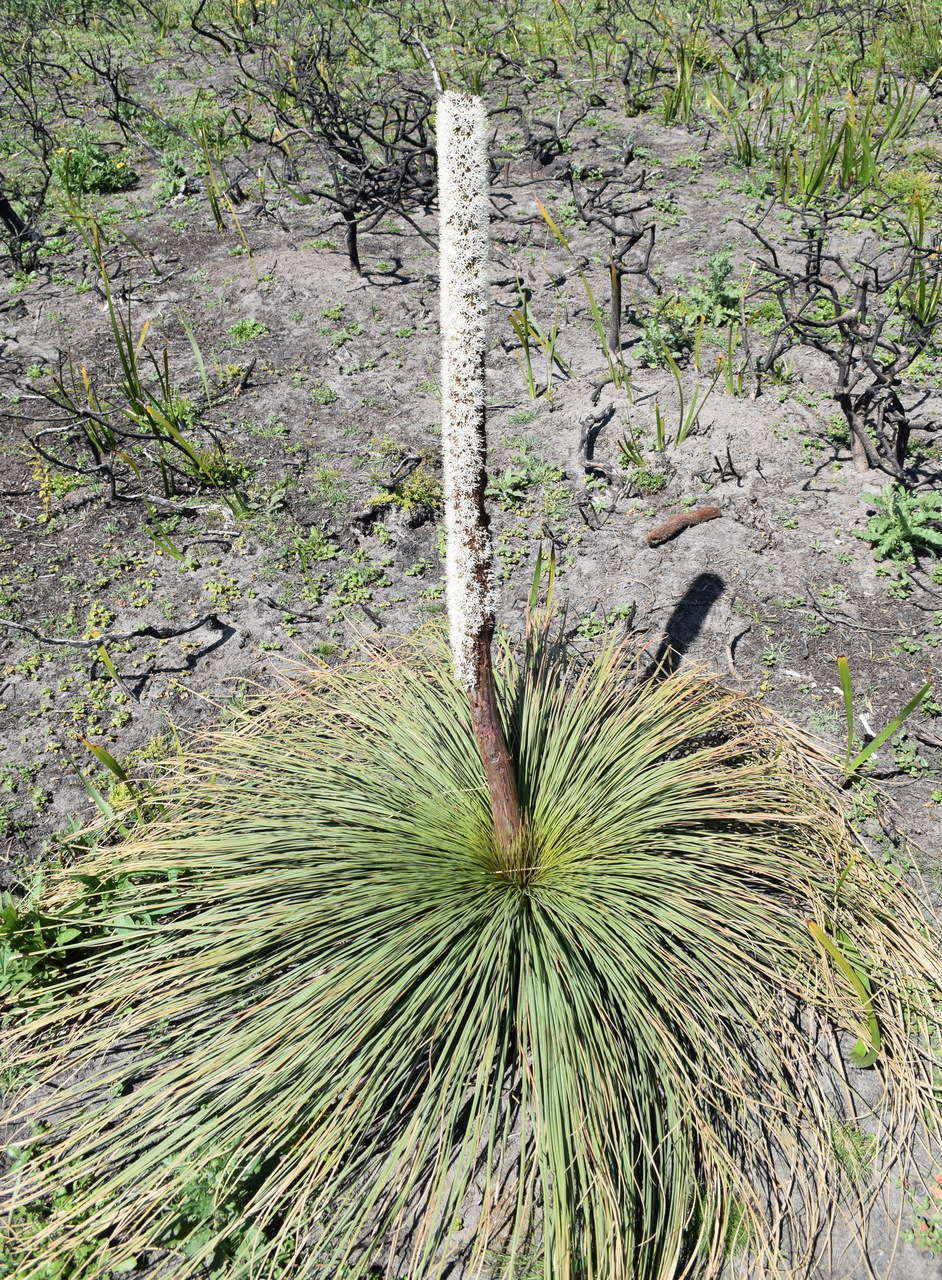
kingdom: Plantae
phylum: Tracheophyta
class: Liliopsida
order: Asparagales
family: Asphodelaceae
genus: Xanthorrhoea
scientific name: Xanthorrhoea australis
